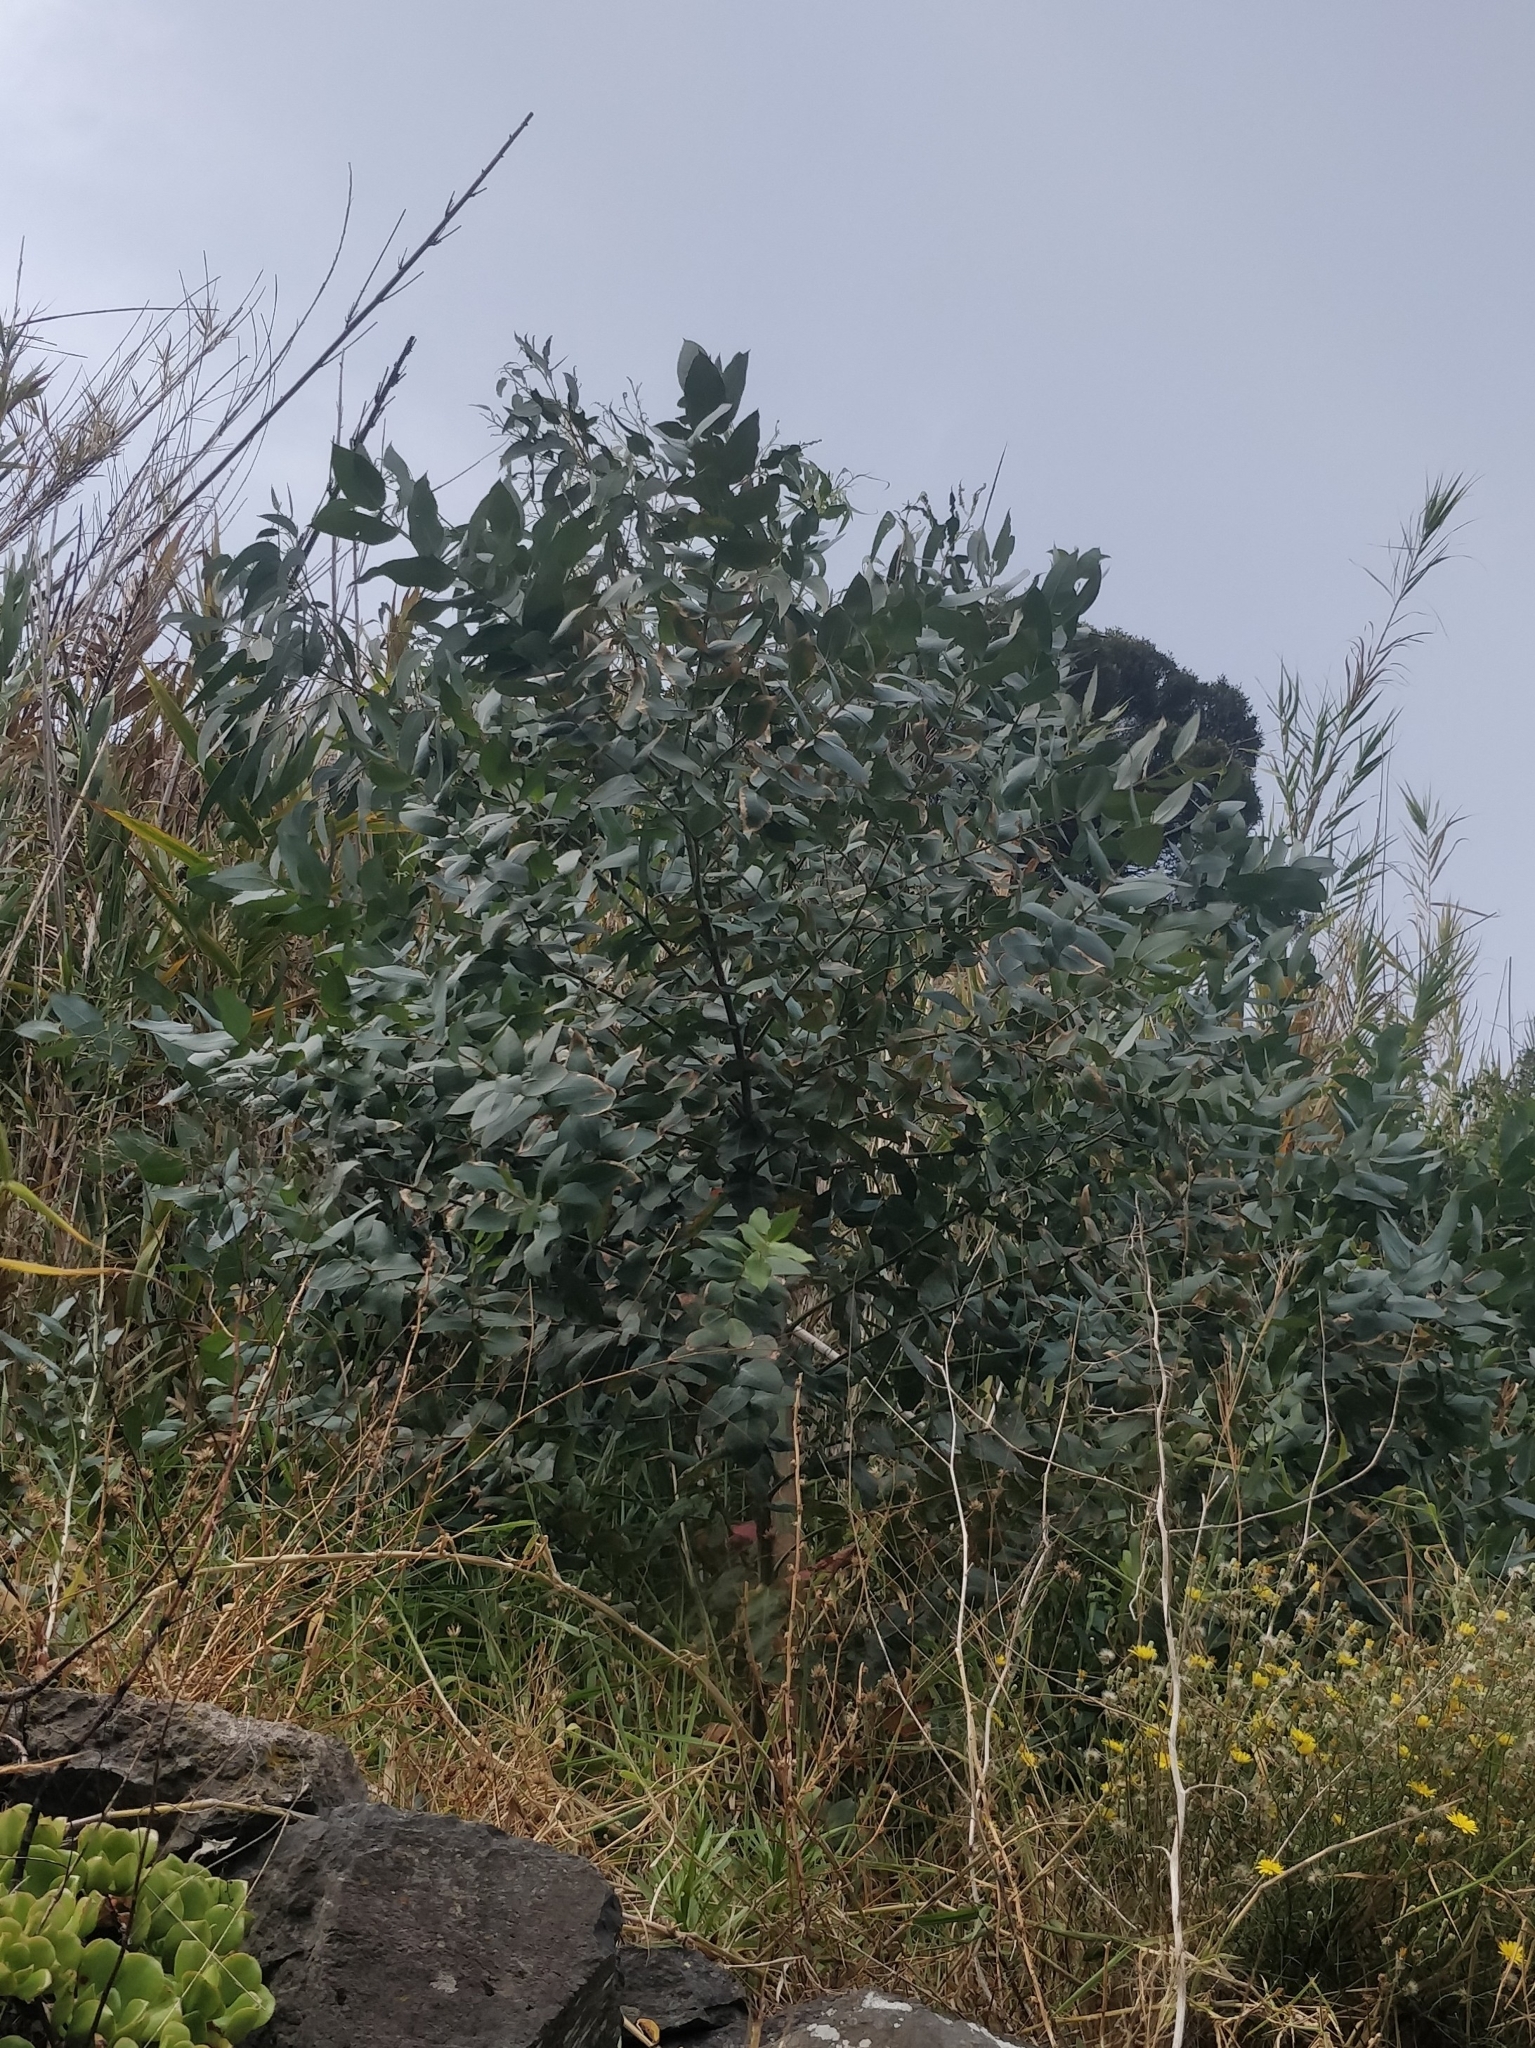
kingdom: Plantae
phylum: Tracheophyta
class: Magnoliopsida
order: Myrtales
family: Myrtaceae
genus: Eucalyptus
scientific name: Eucalyptus globulus
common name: Southern blue-gum
